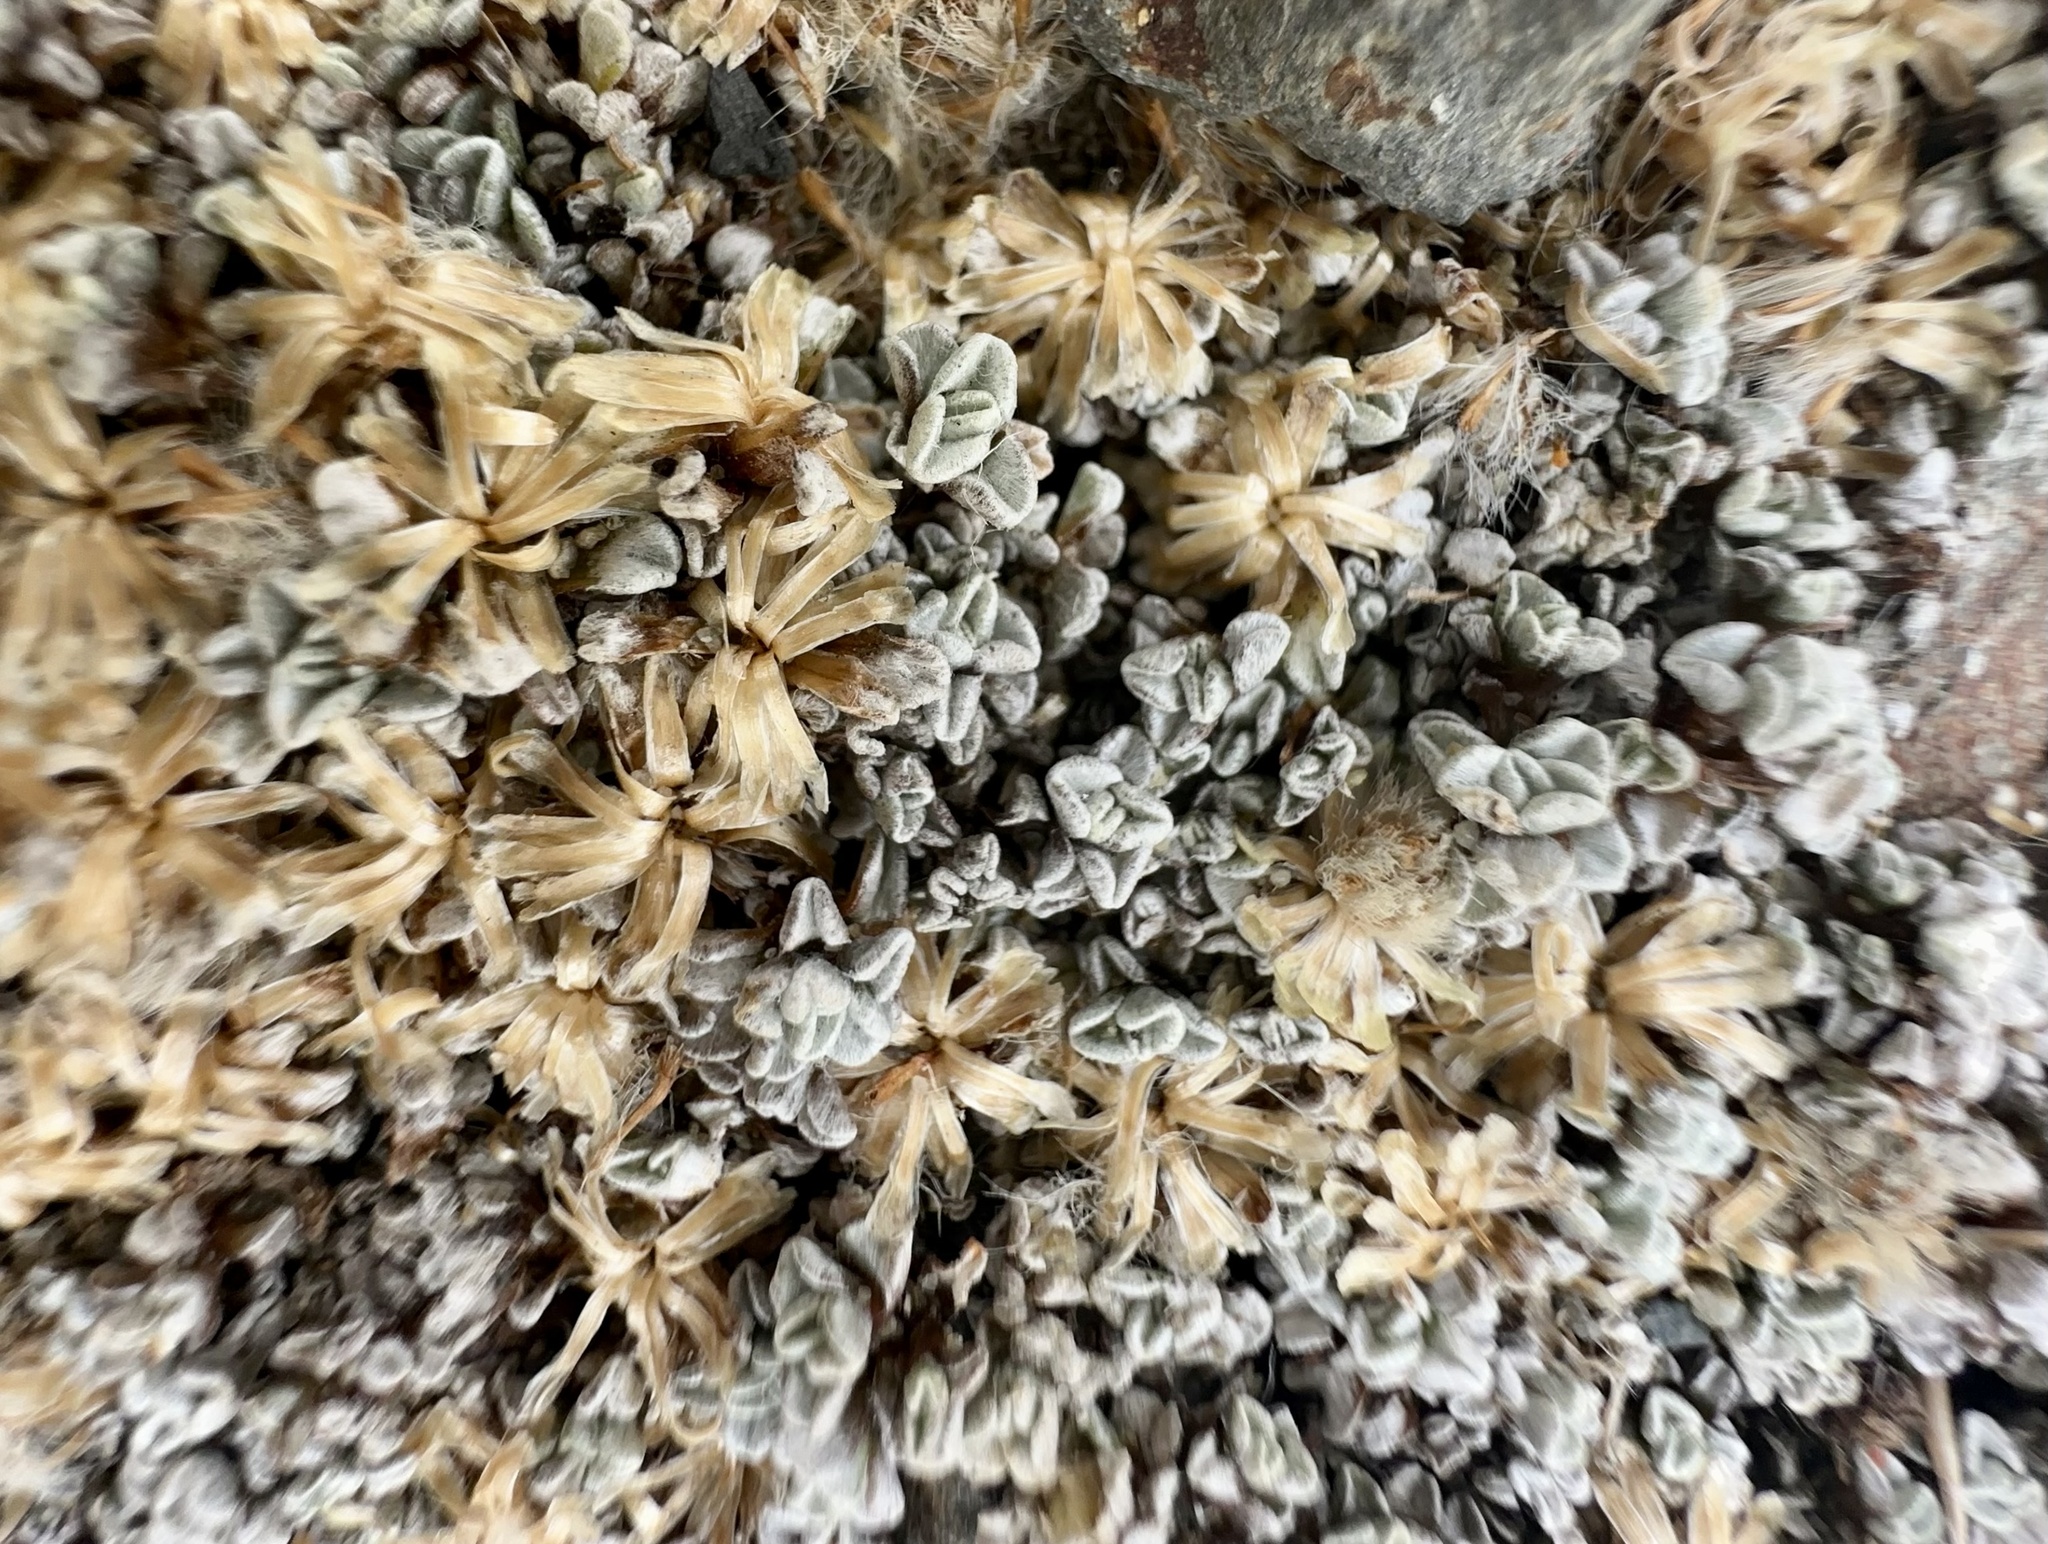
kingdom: Plantae
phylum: Tracheophyta
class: Magnoliopsida
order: Asterales
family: Asteraceae
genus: Raoulia
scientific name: Raoulia hookeri
